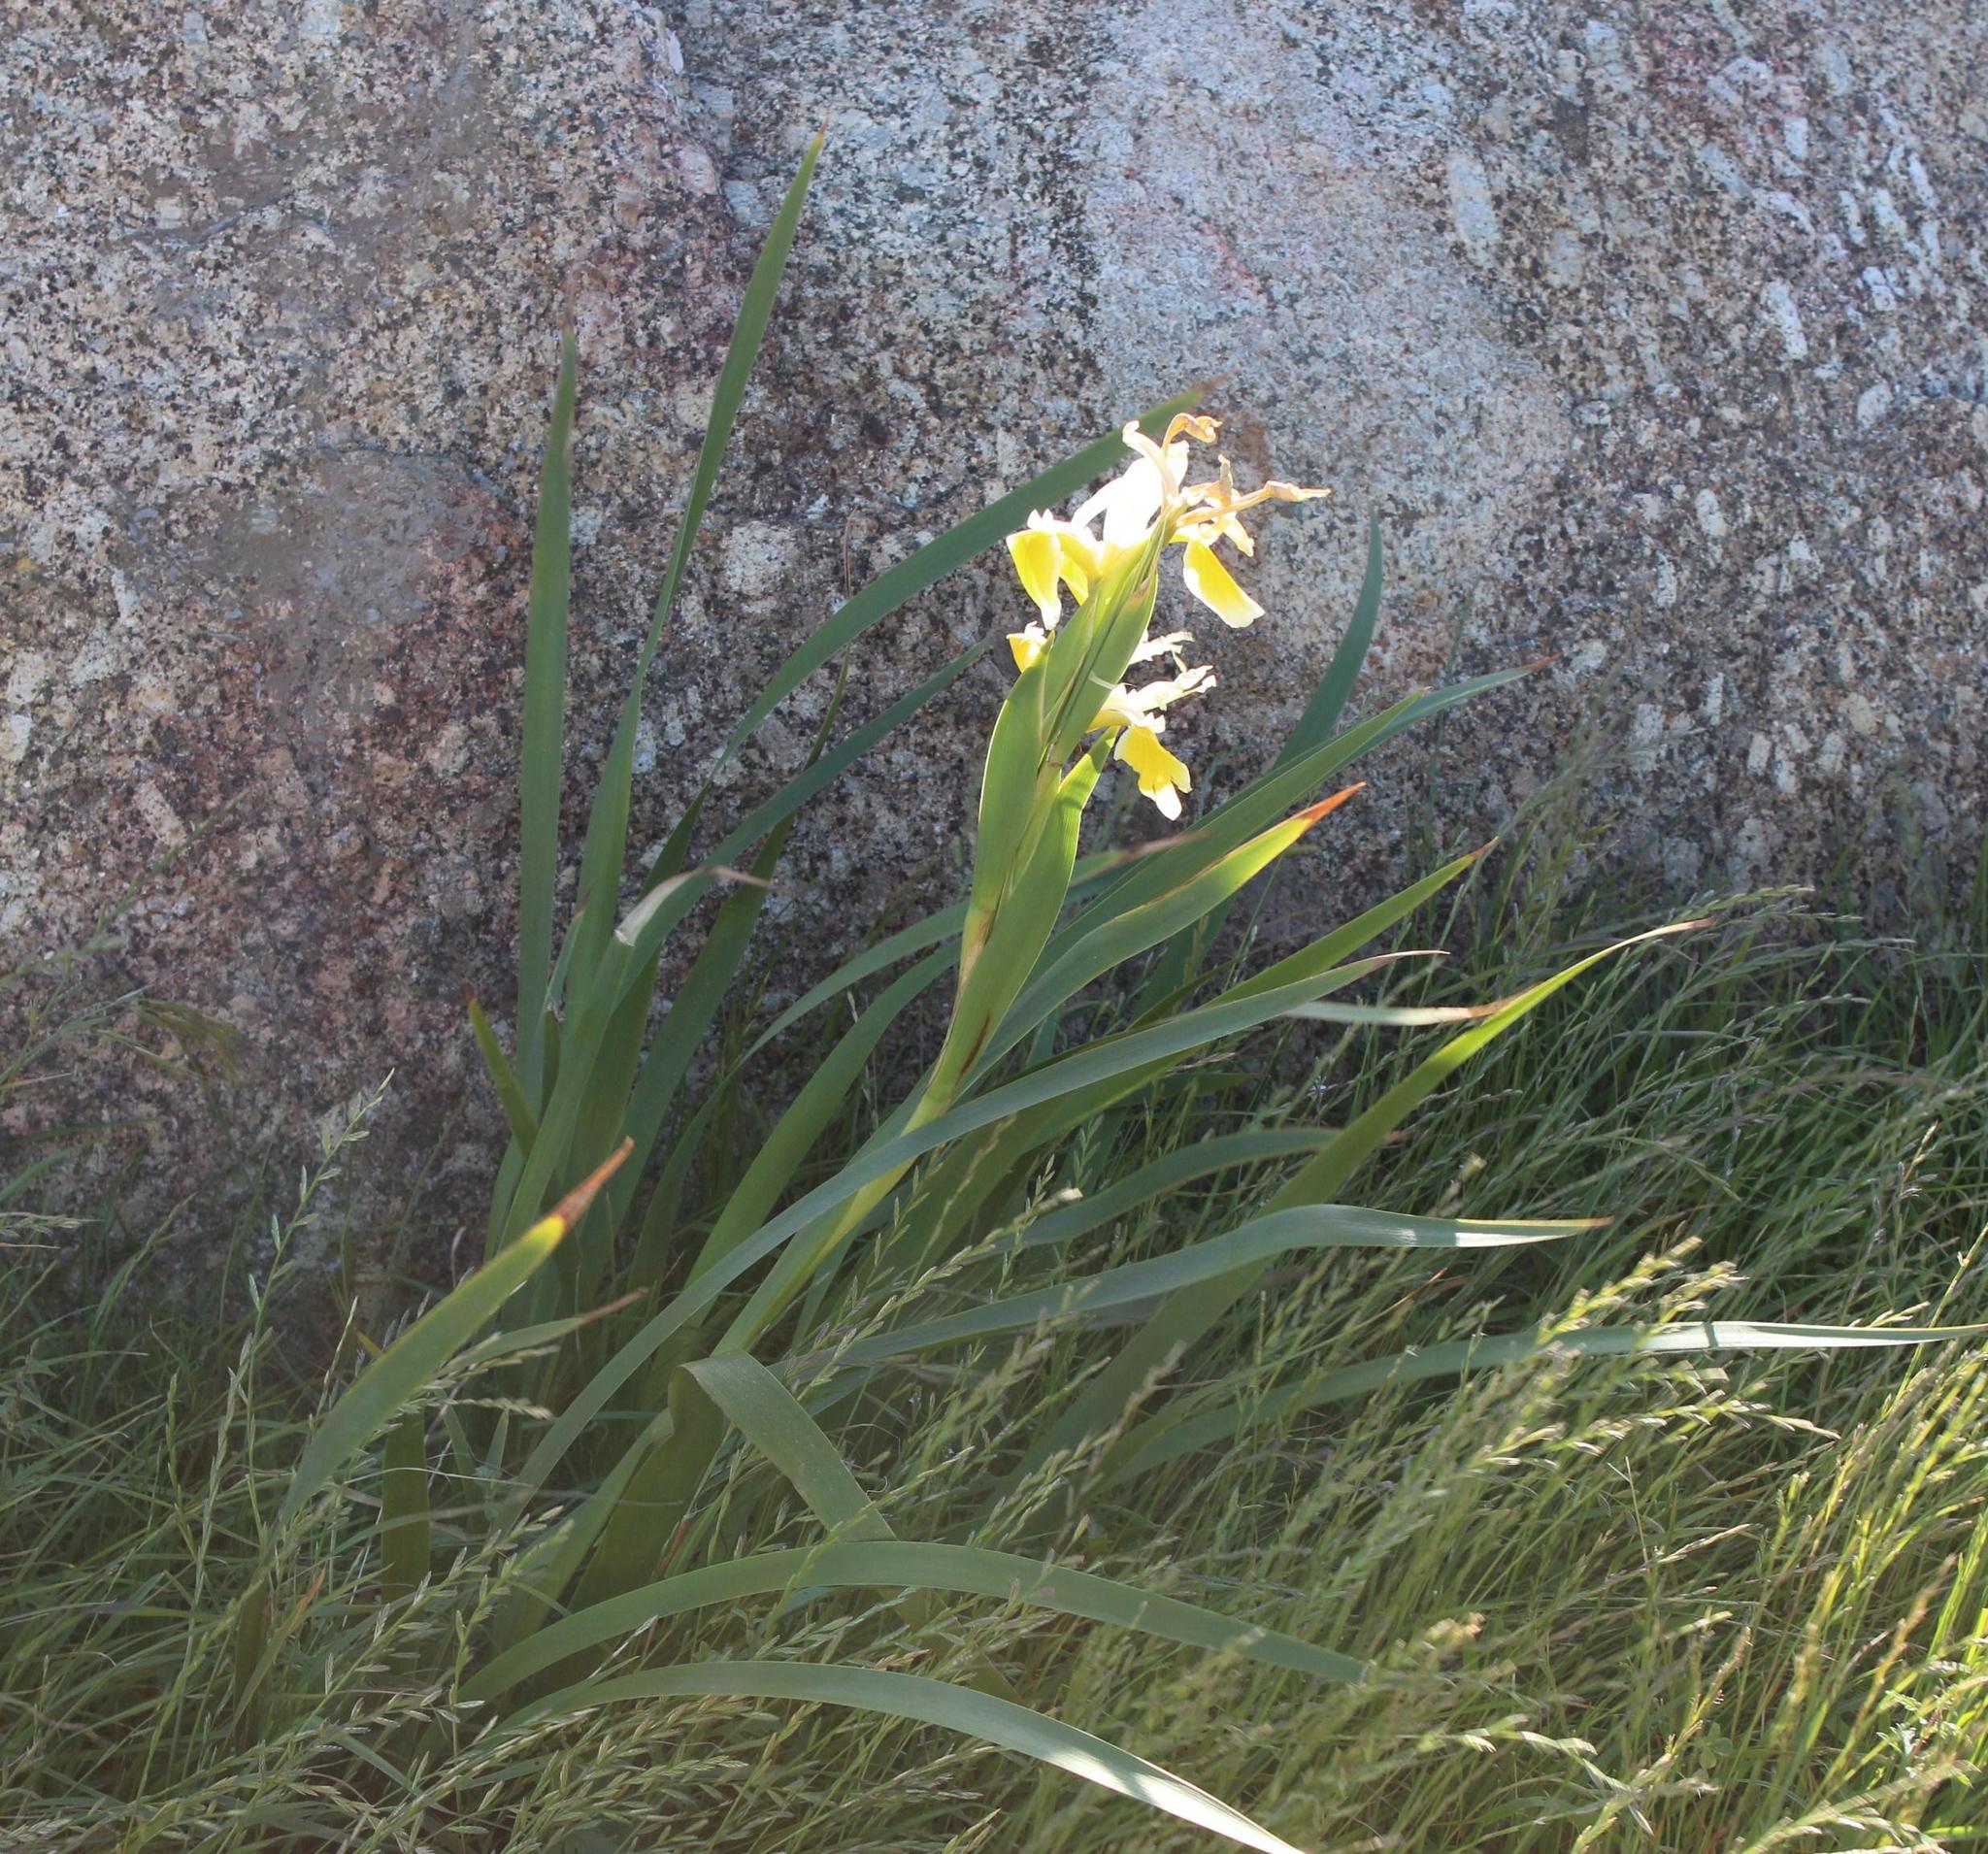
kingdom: Plantae
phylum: Tracheophyta
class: Liliopsida
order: Asparagales
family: Iridaceae
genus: Iris
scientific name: Iris orientalis
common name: Turkish iris
